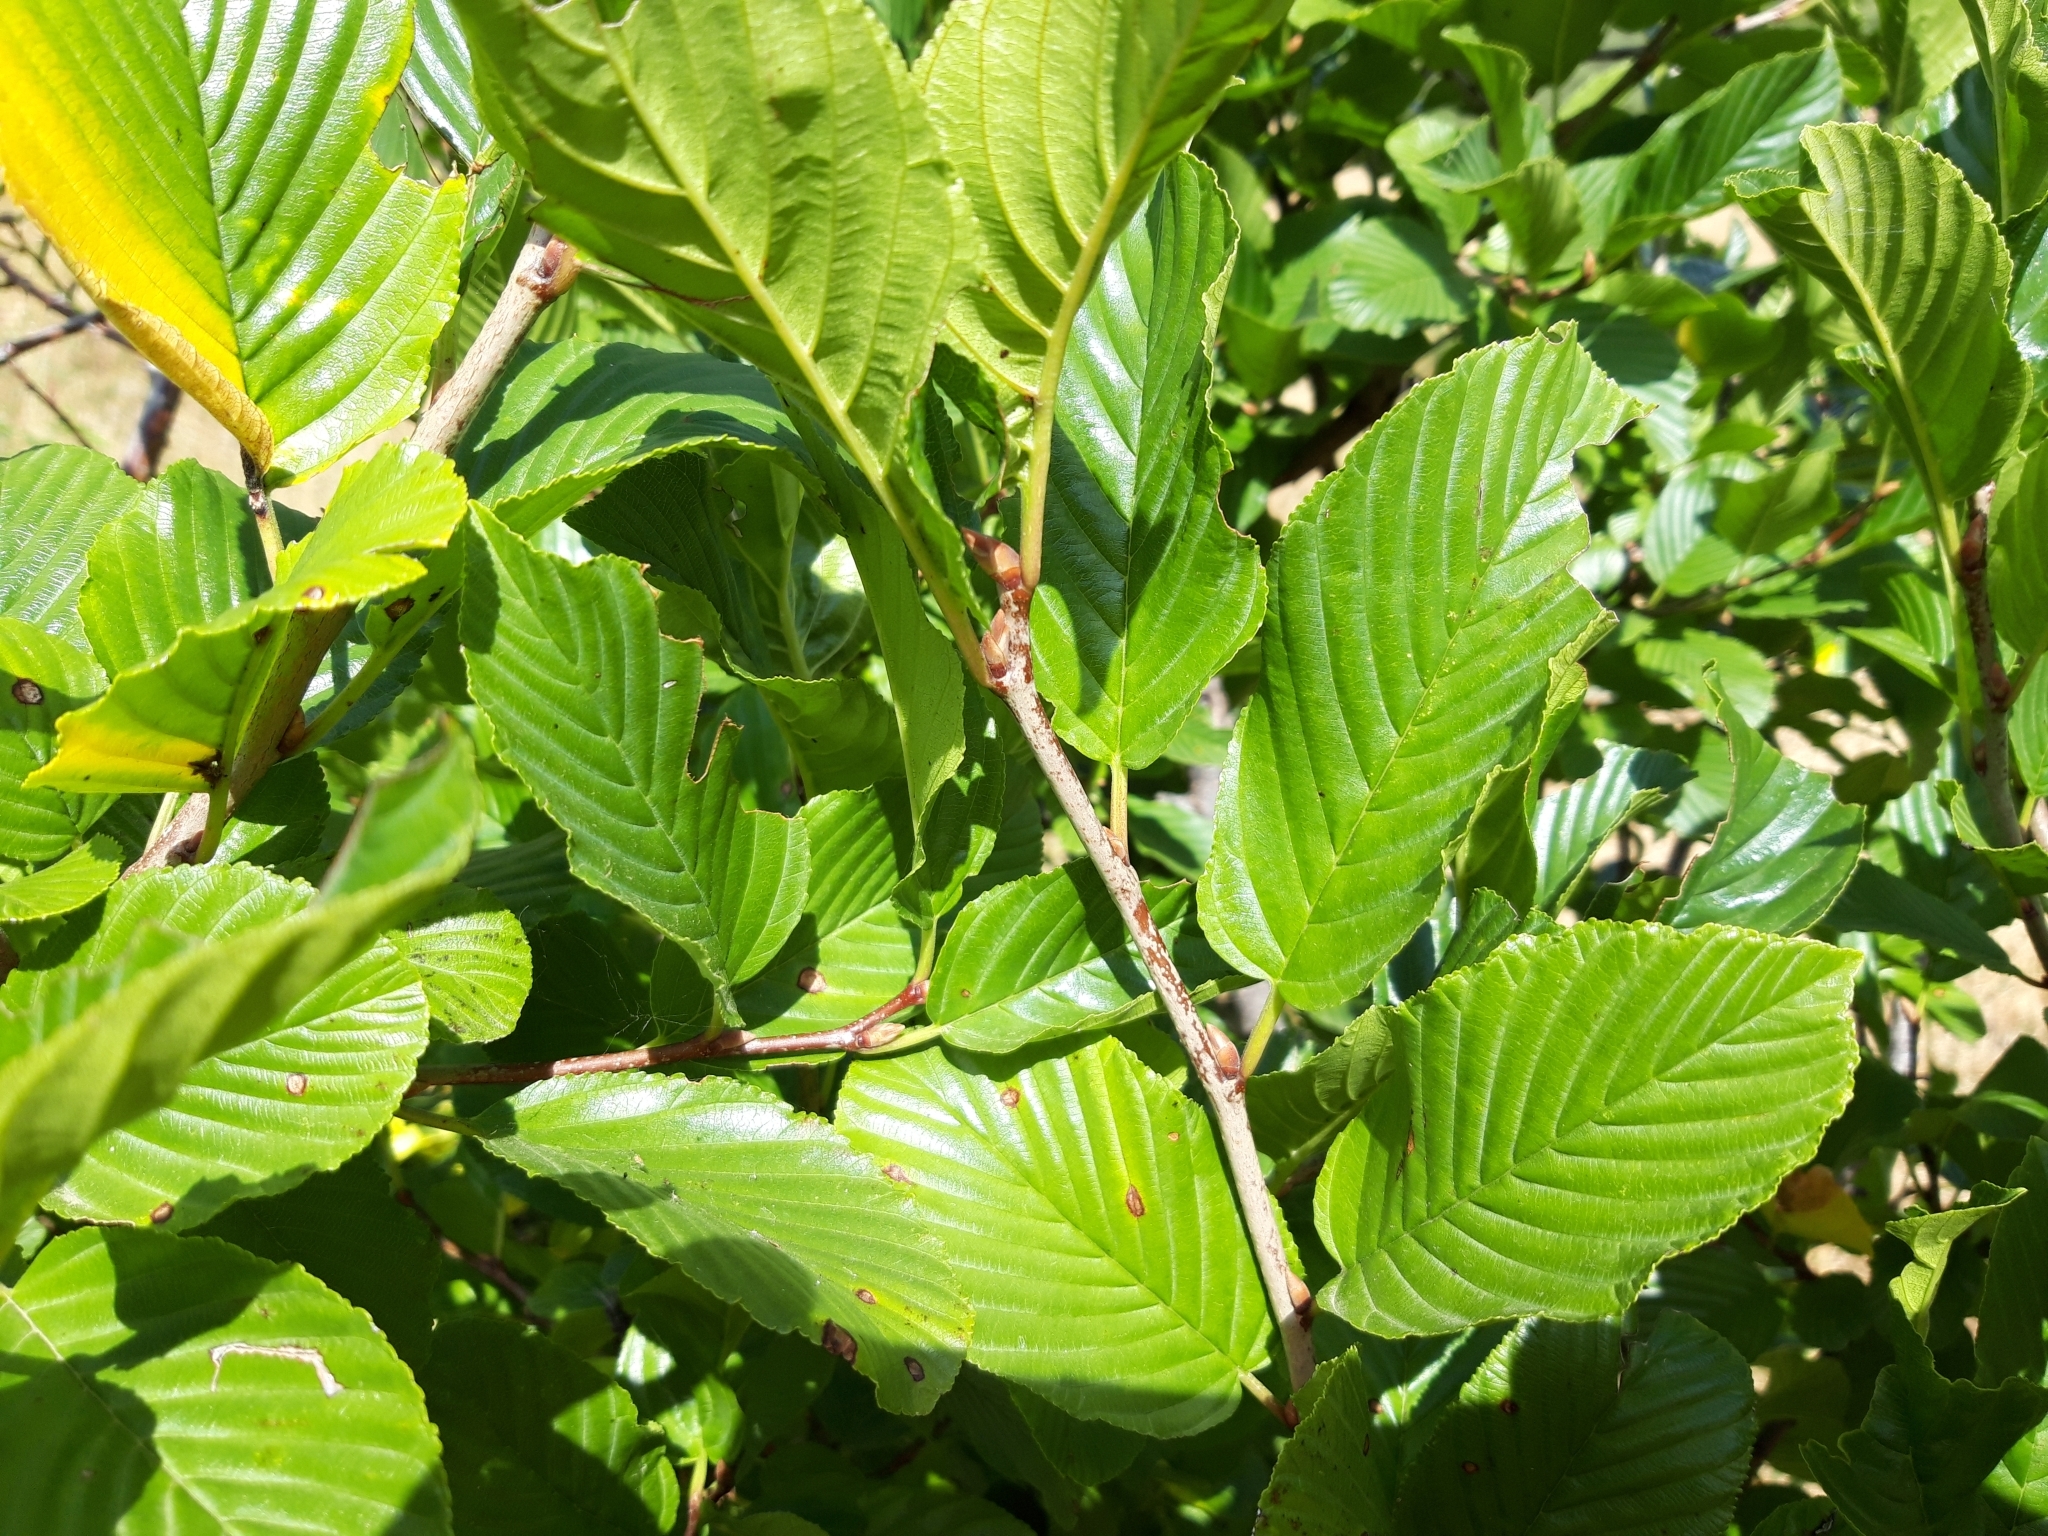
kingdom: Plantae
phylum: Tracheophyta
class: Magnoliopsida
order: Rosales
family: Rhamnaceae
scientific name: Rhamnaceae
